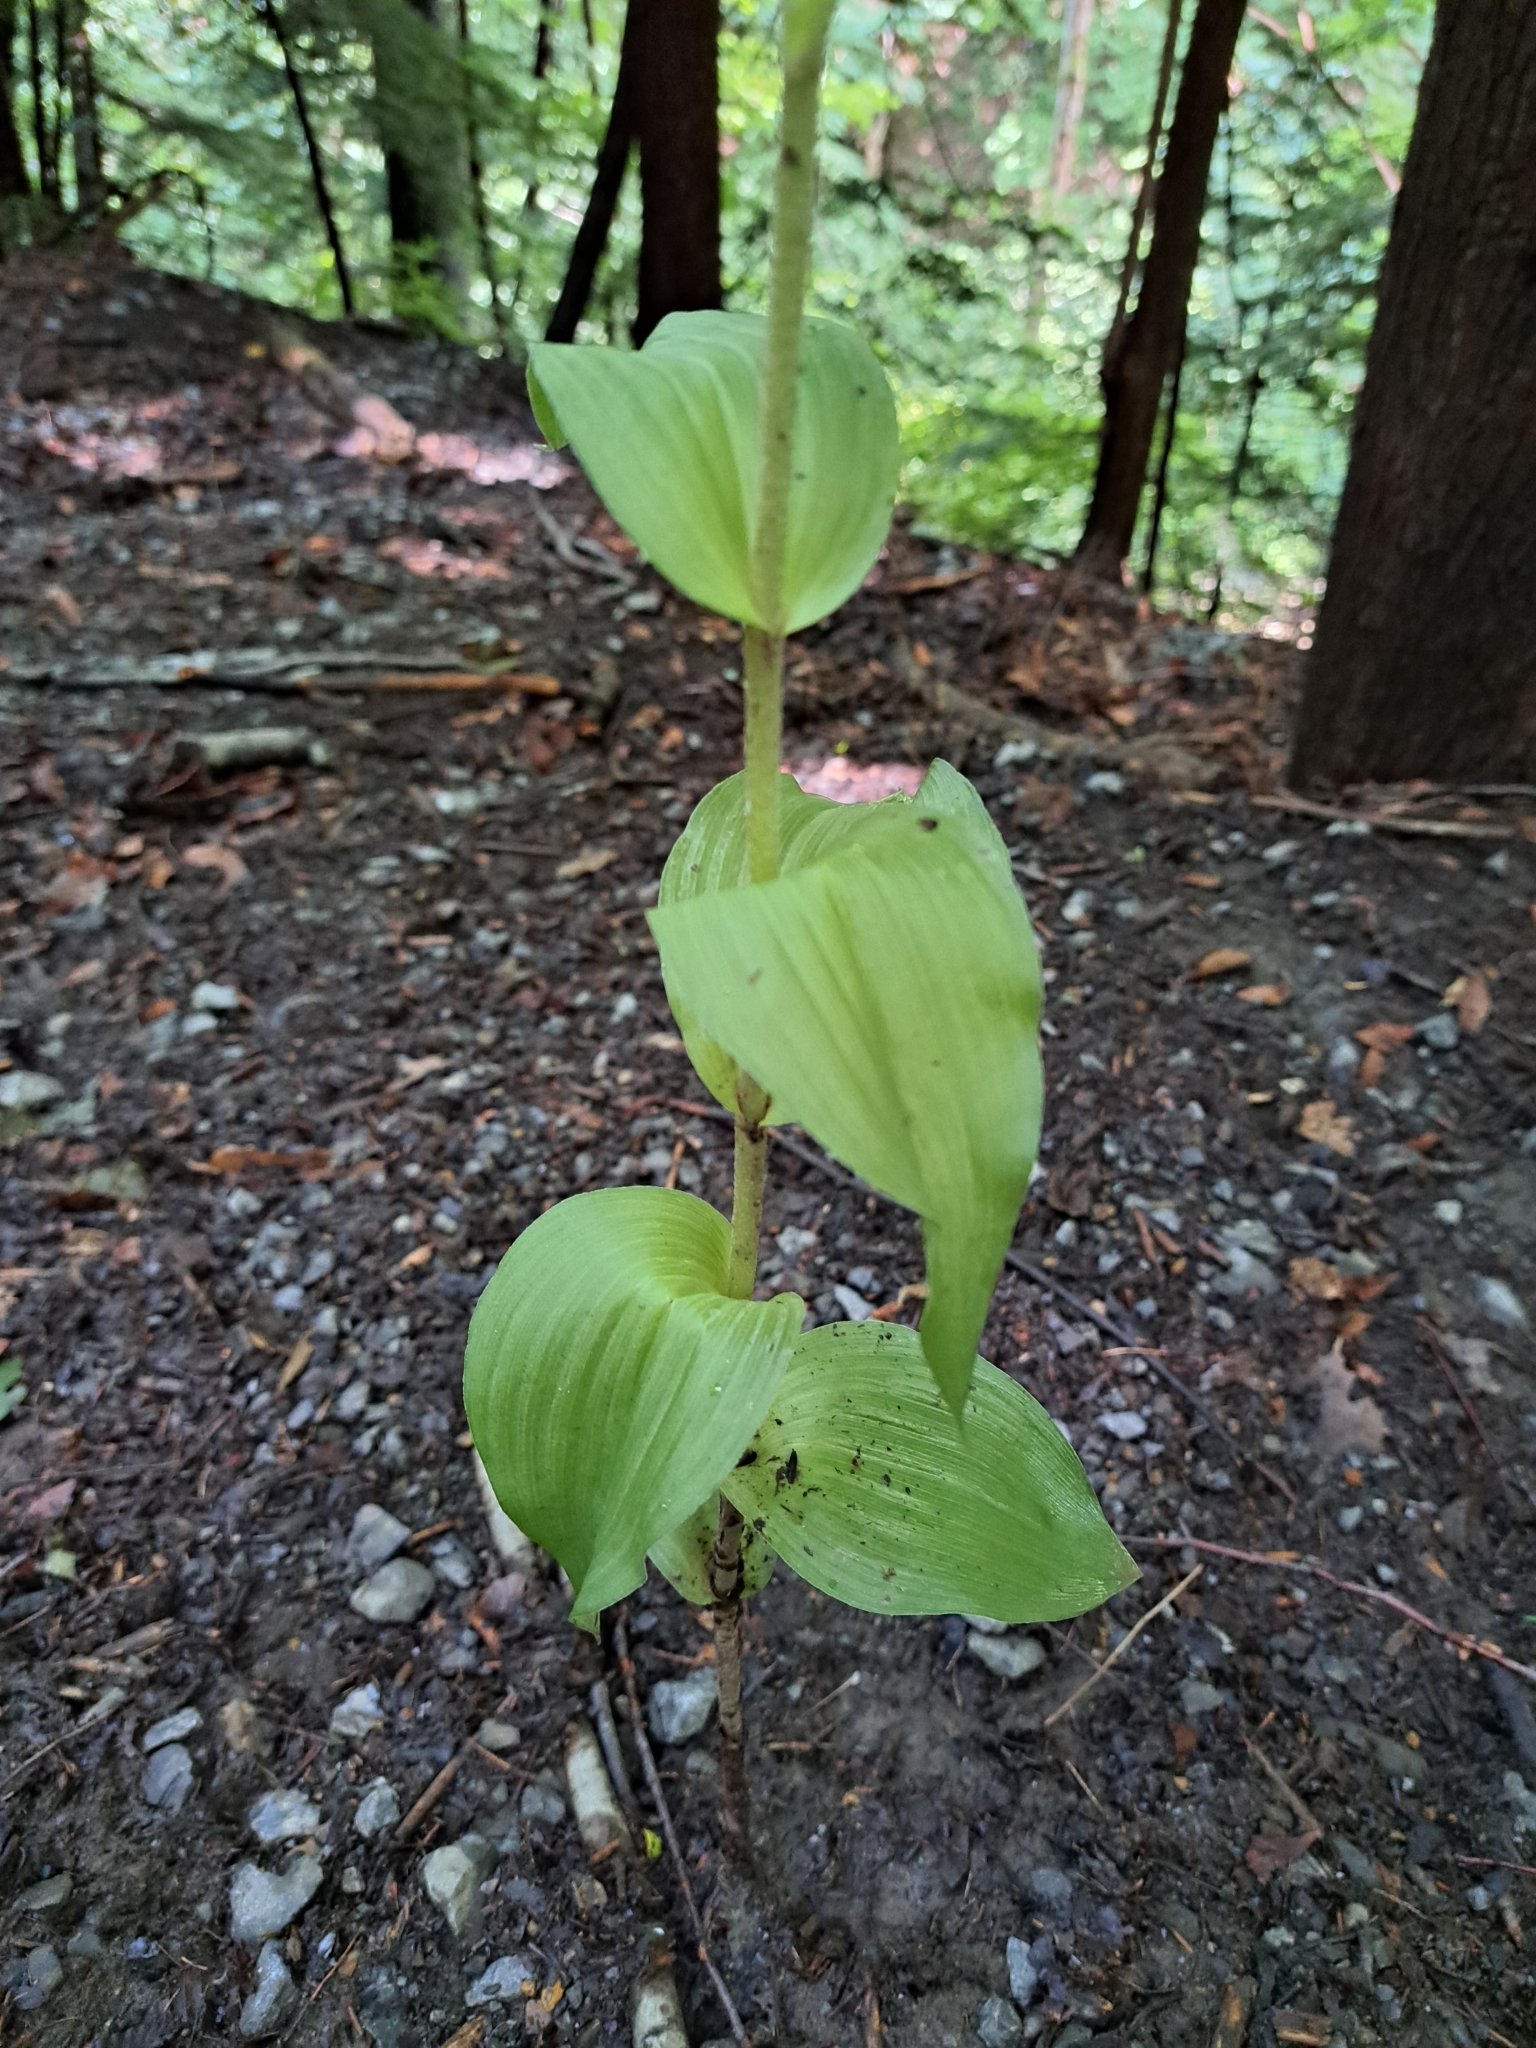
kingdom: Plantae
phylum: Tracheophyta
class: Liliopsida
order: Asparagales
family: Orchidaceae
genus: Epipactis
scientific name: Epipactis helleborine
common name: Broad-leaved helleborine
